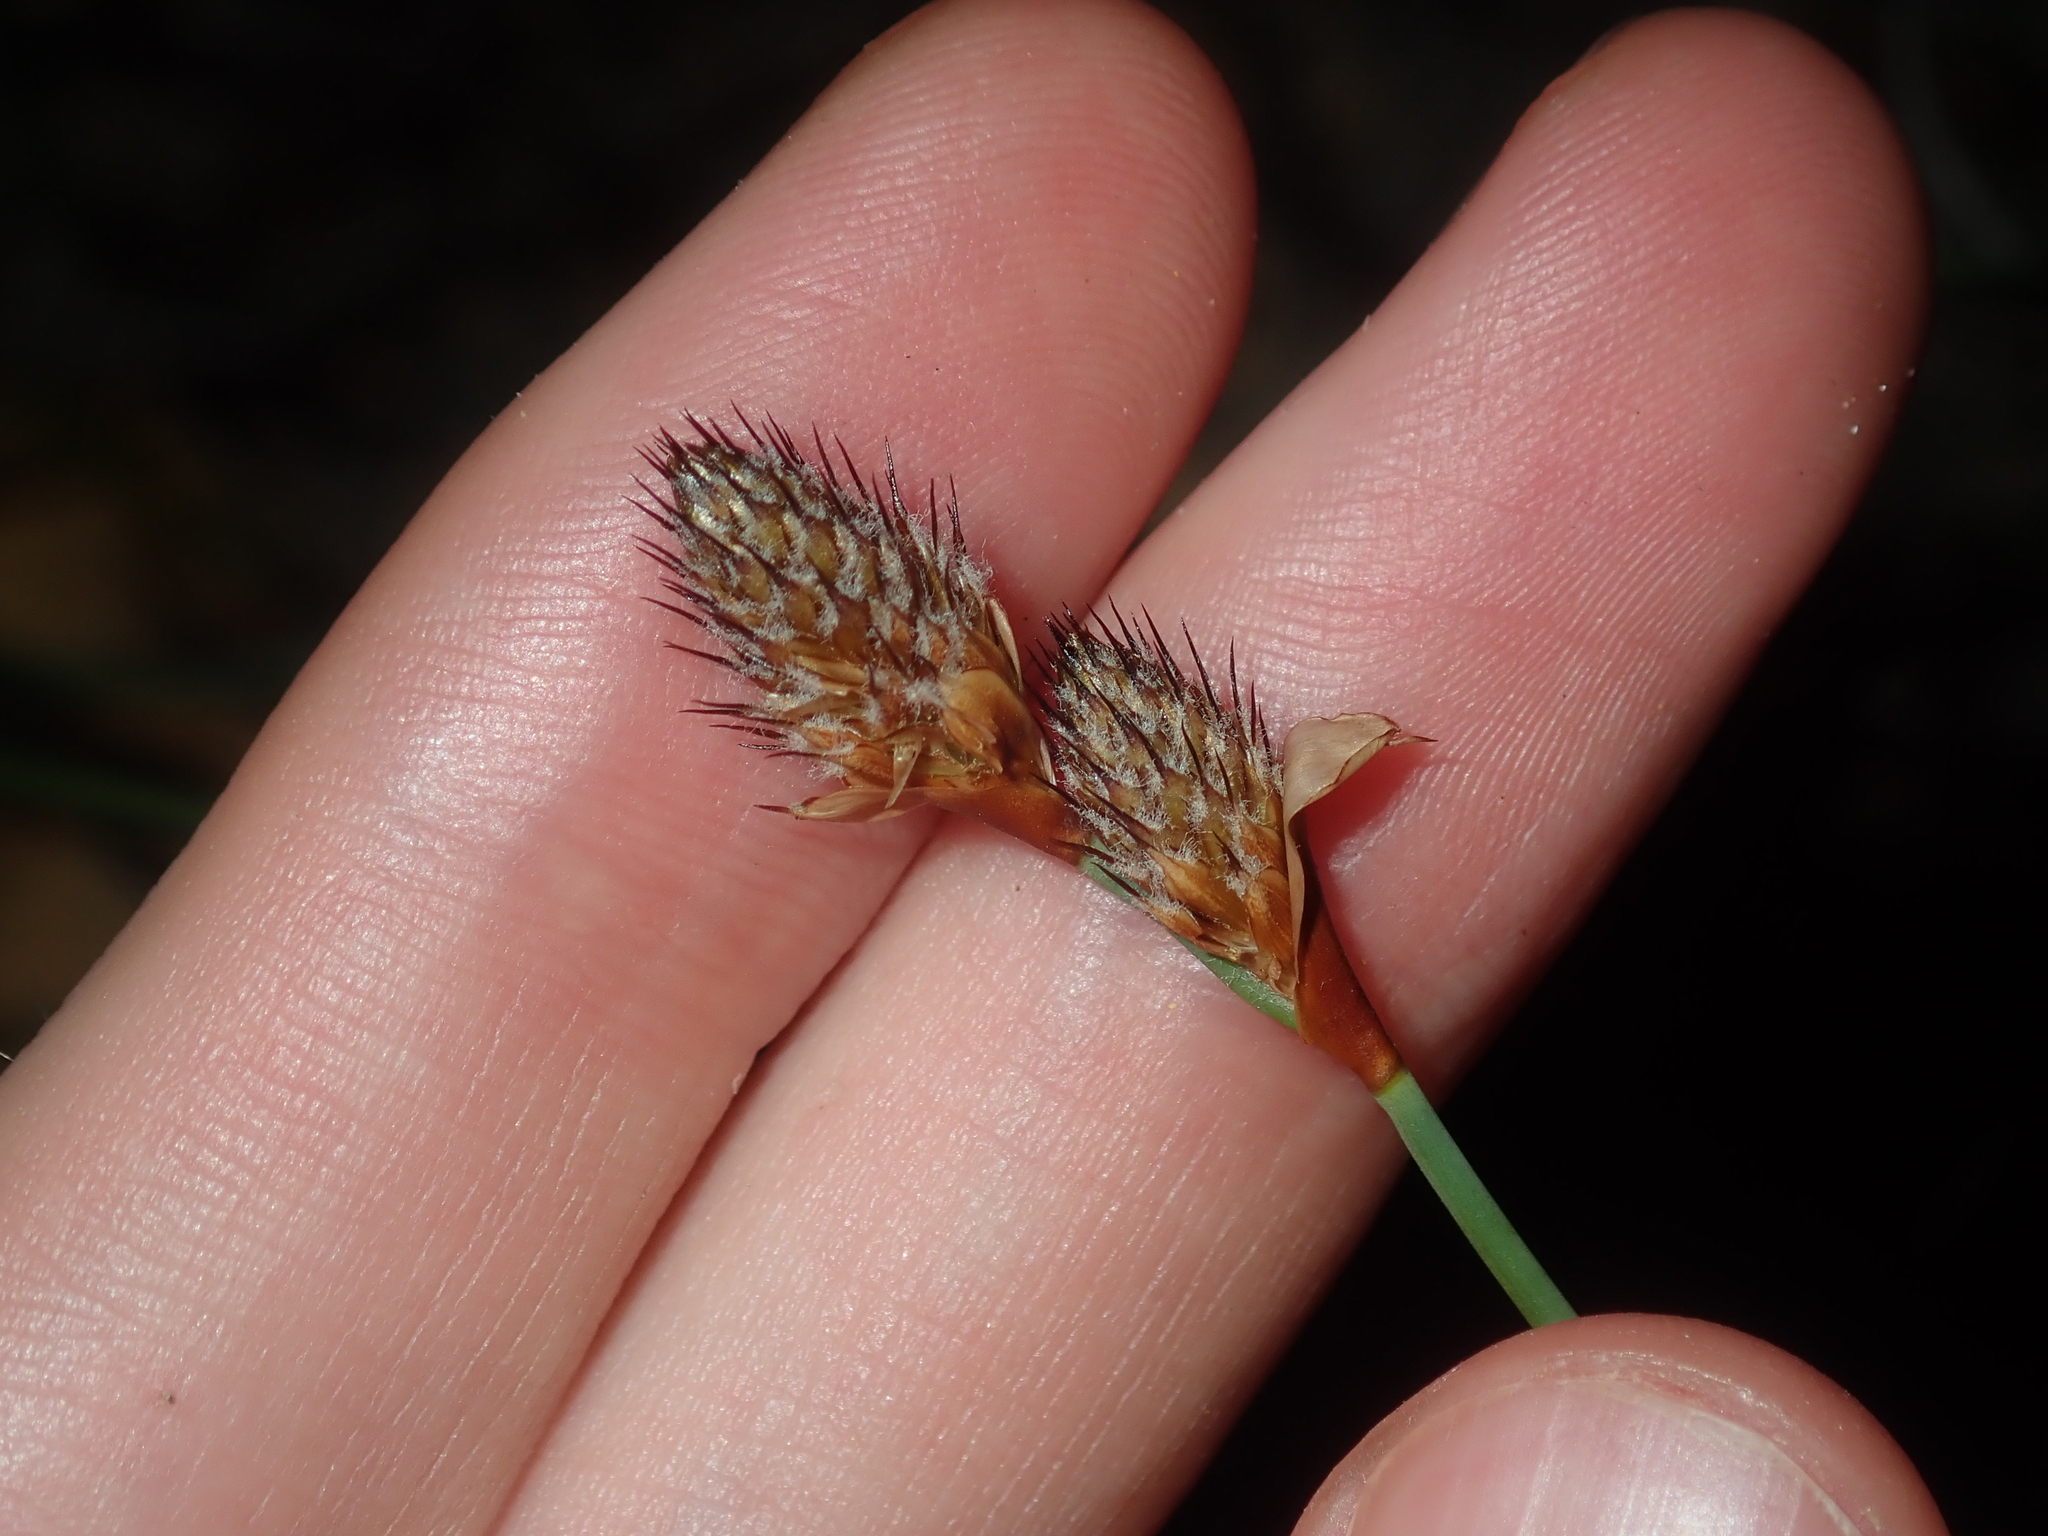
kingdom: Plantae
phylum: Tracheophyta
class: Liliopsida
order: Poales
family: Restionaceae
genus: Lepidobolus
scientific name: Lepidobolus preissianus
